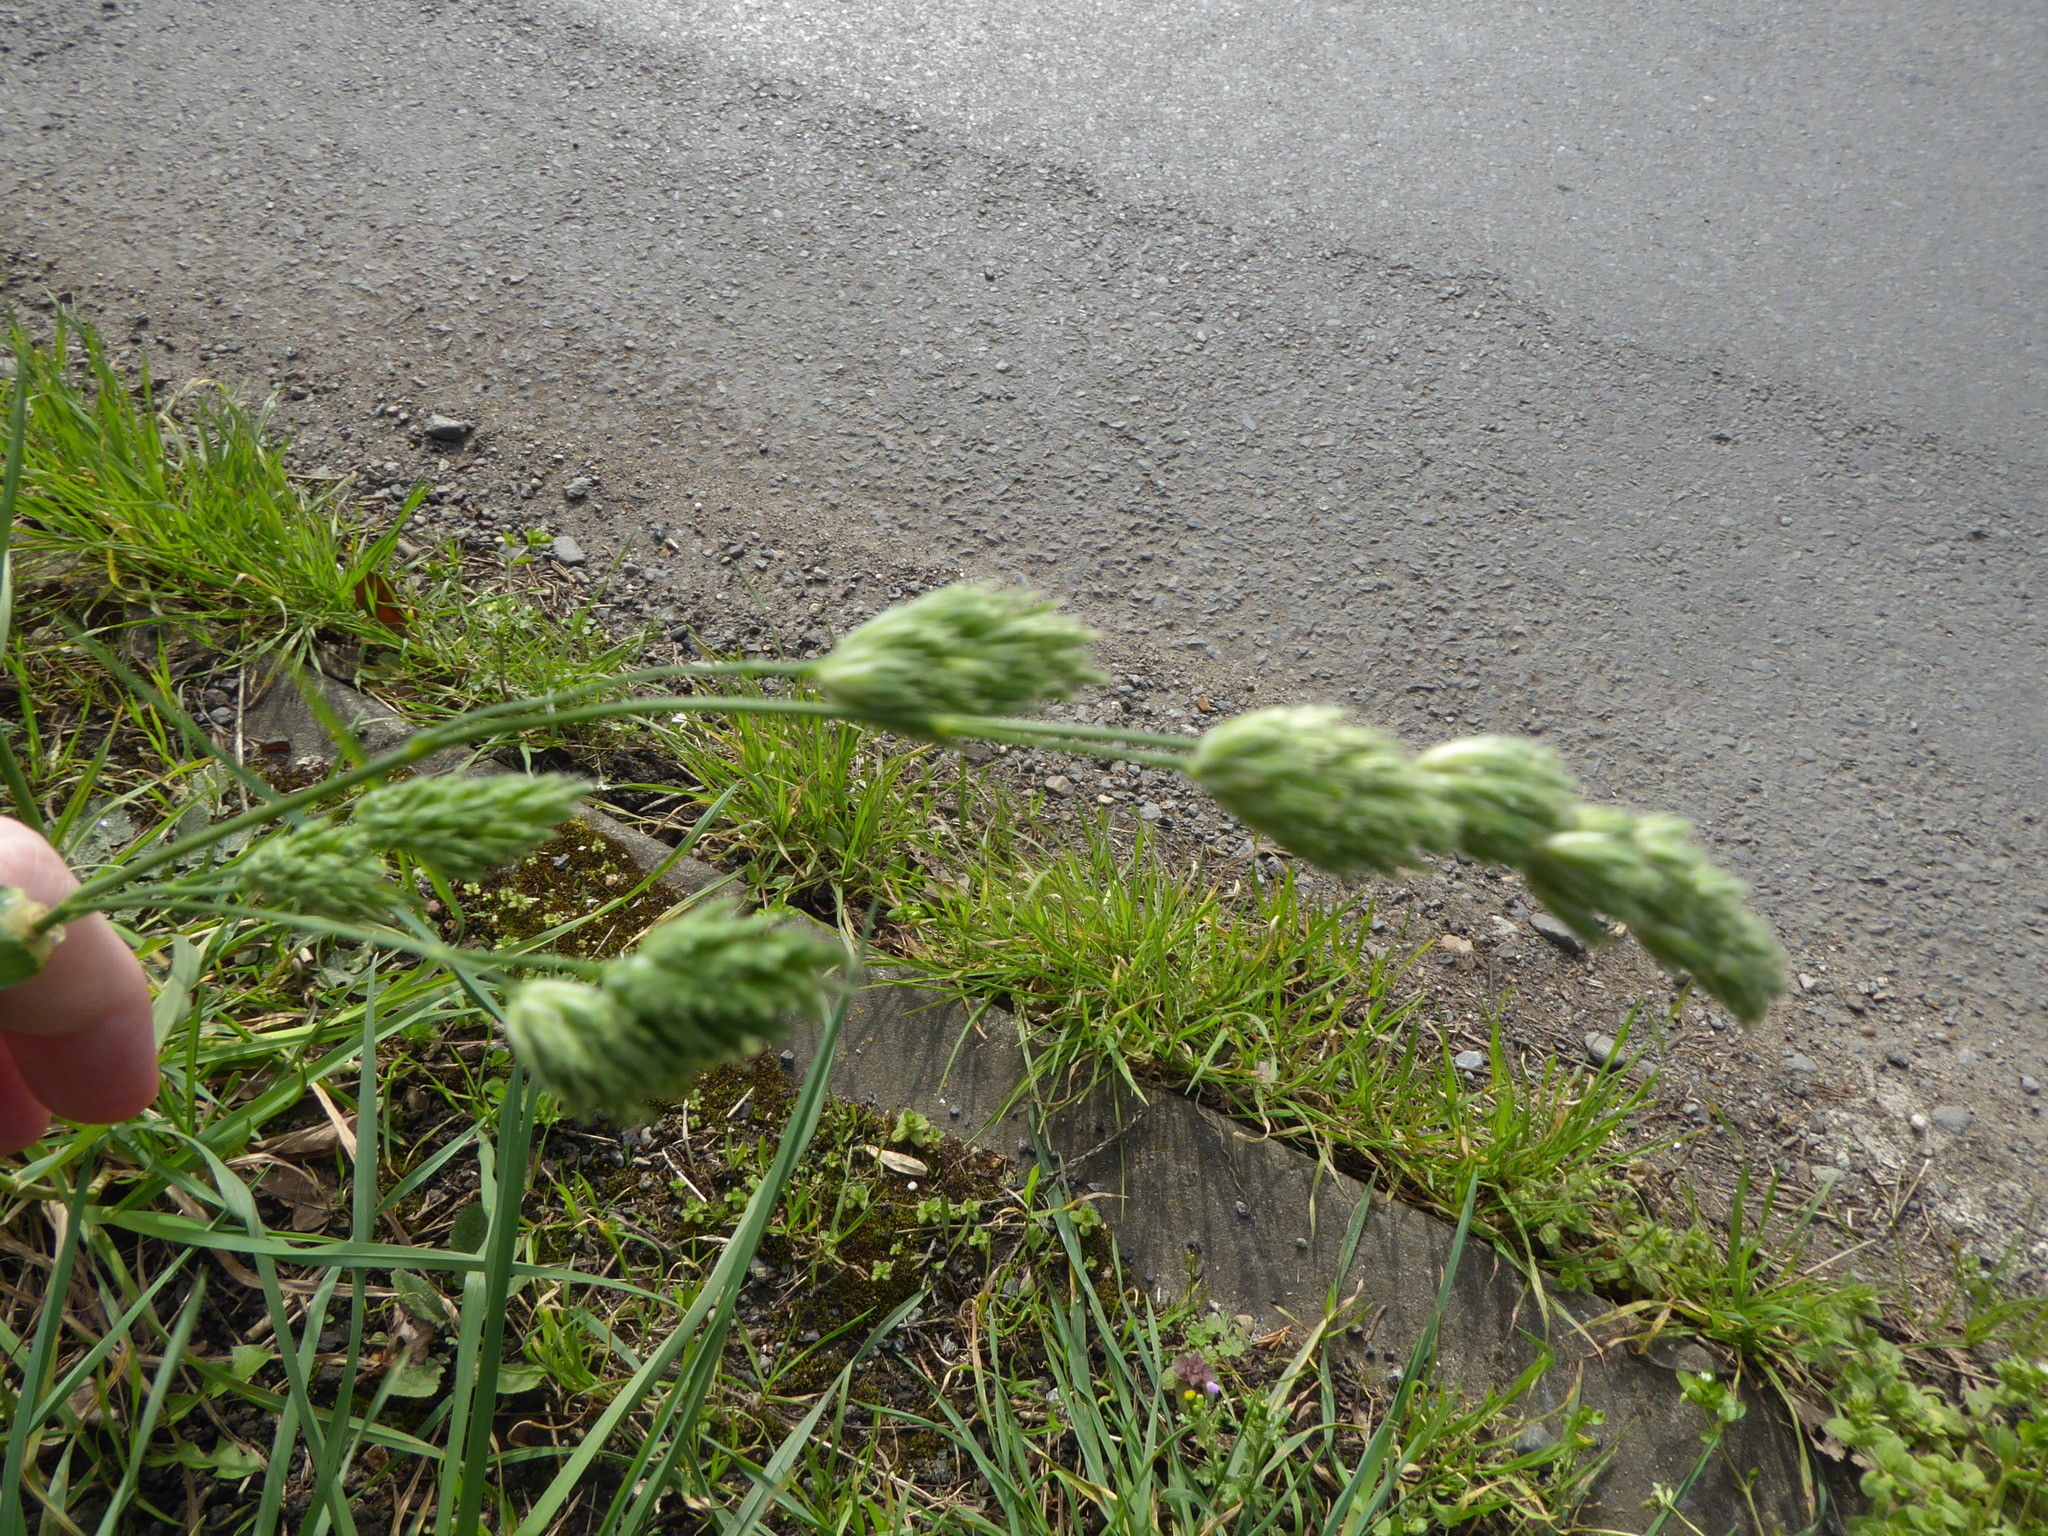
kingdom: Plantae
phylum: Tracheophyta
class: Liliopsida
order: Poales
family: Poaceae
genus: Dactylis
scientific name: Dactylis glomerata
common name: Orchardgrass
